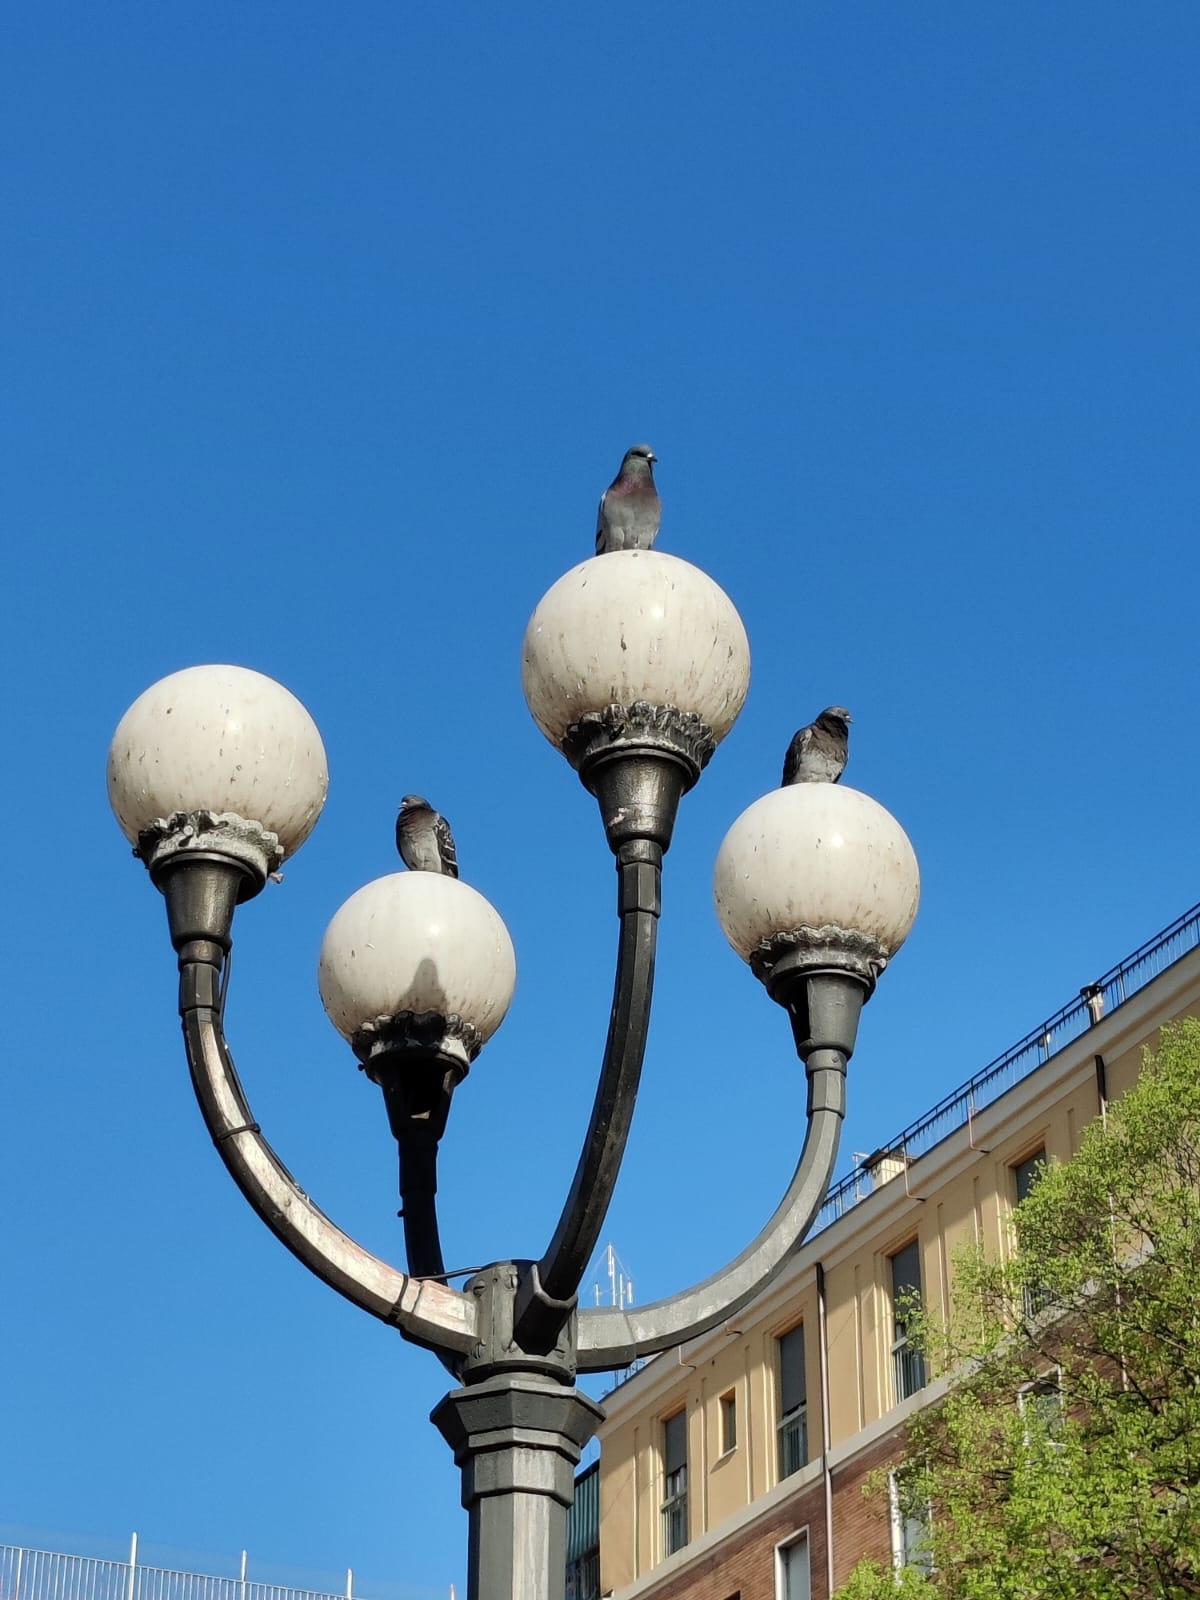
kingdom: Animalia
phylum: Chordata
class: Aves
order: Columbiformes
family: Columbidae
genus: Columba
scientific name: Columba livia
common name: Rock pigeon
